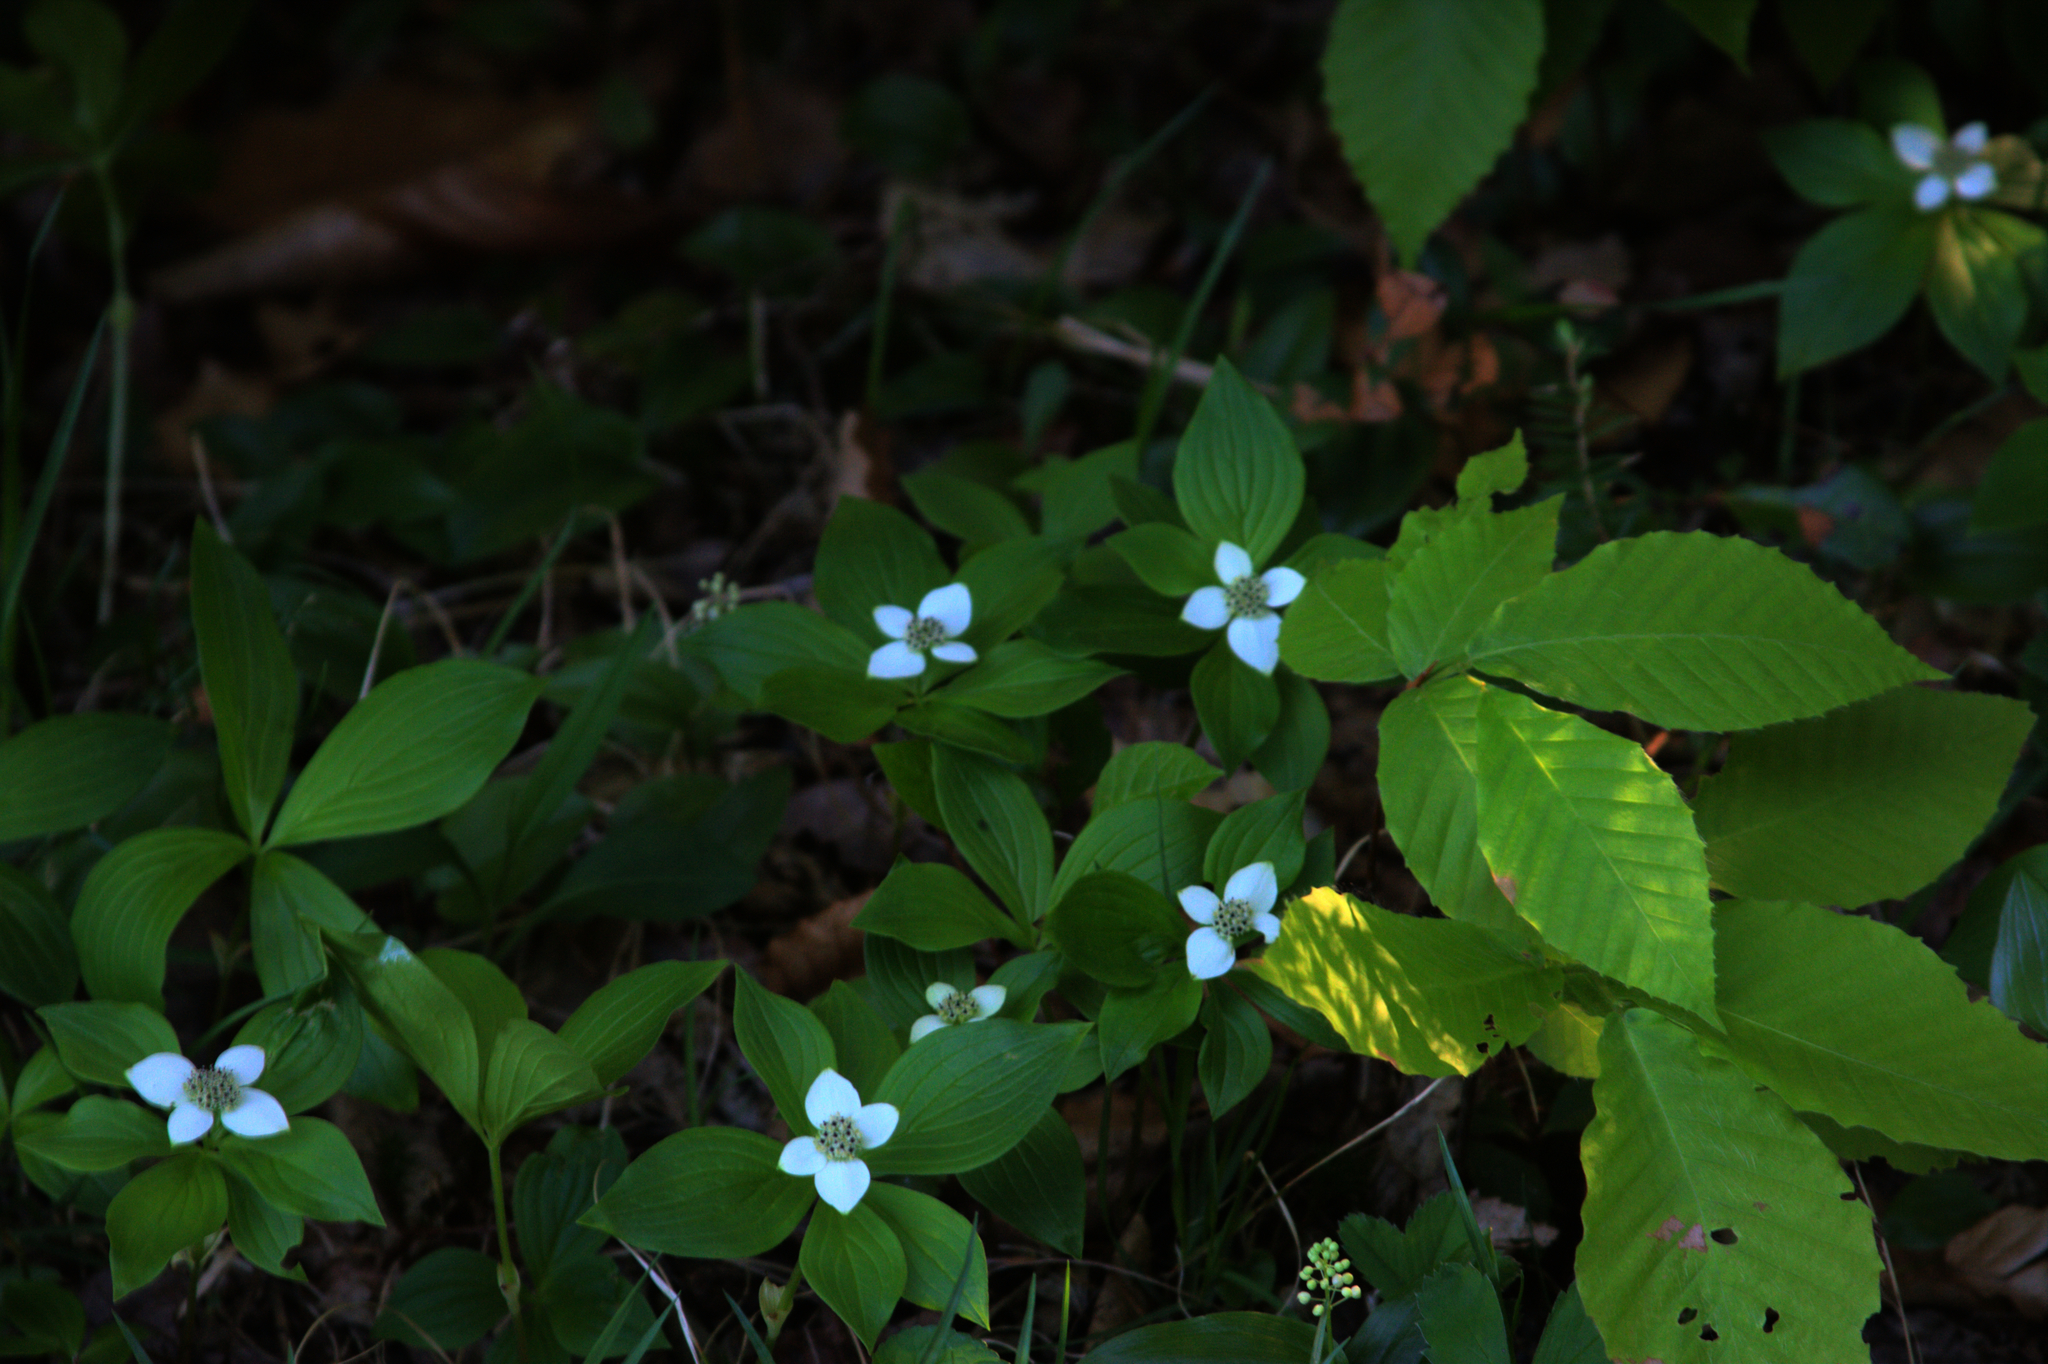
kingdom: Plantae
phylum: Tracheophyta
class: Magnoliopsida
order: Fagales
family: Fagaceae
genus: Fagus
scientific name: Fagus grandifolia
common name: American beech
